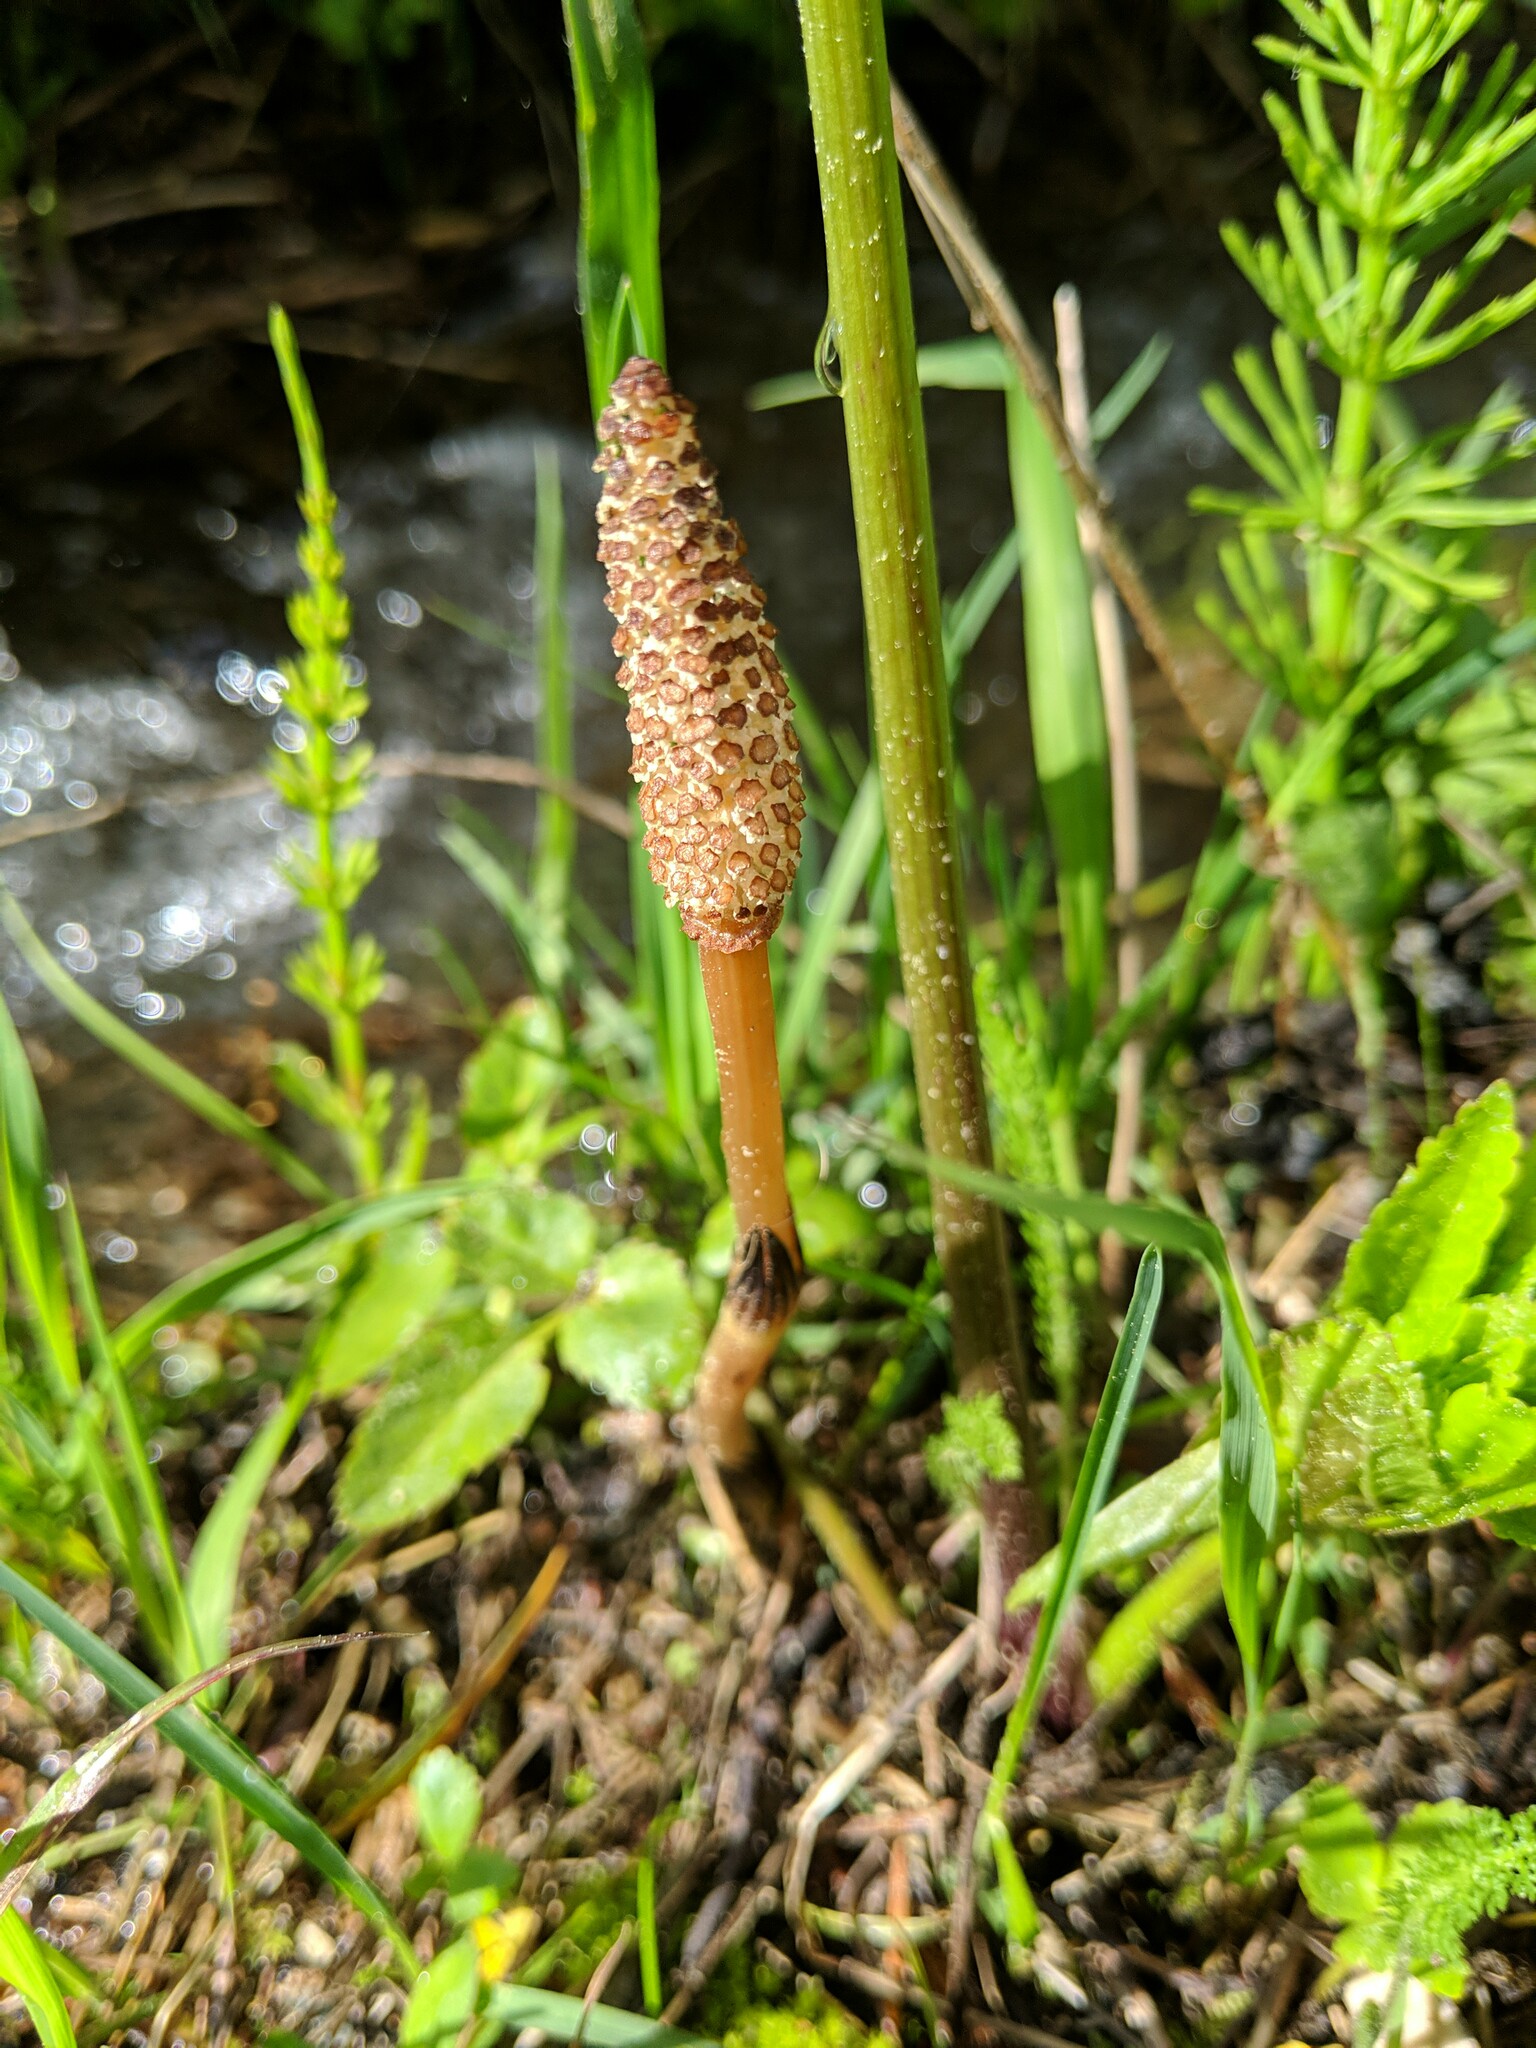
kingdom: Plantae
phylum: Tracheophyta
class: Polypodiopsida
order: Equisetales
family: Equisetaceae
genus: Equisetum
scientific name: Equisetum arvense
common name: Field horsetail
